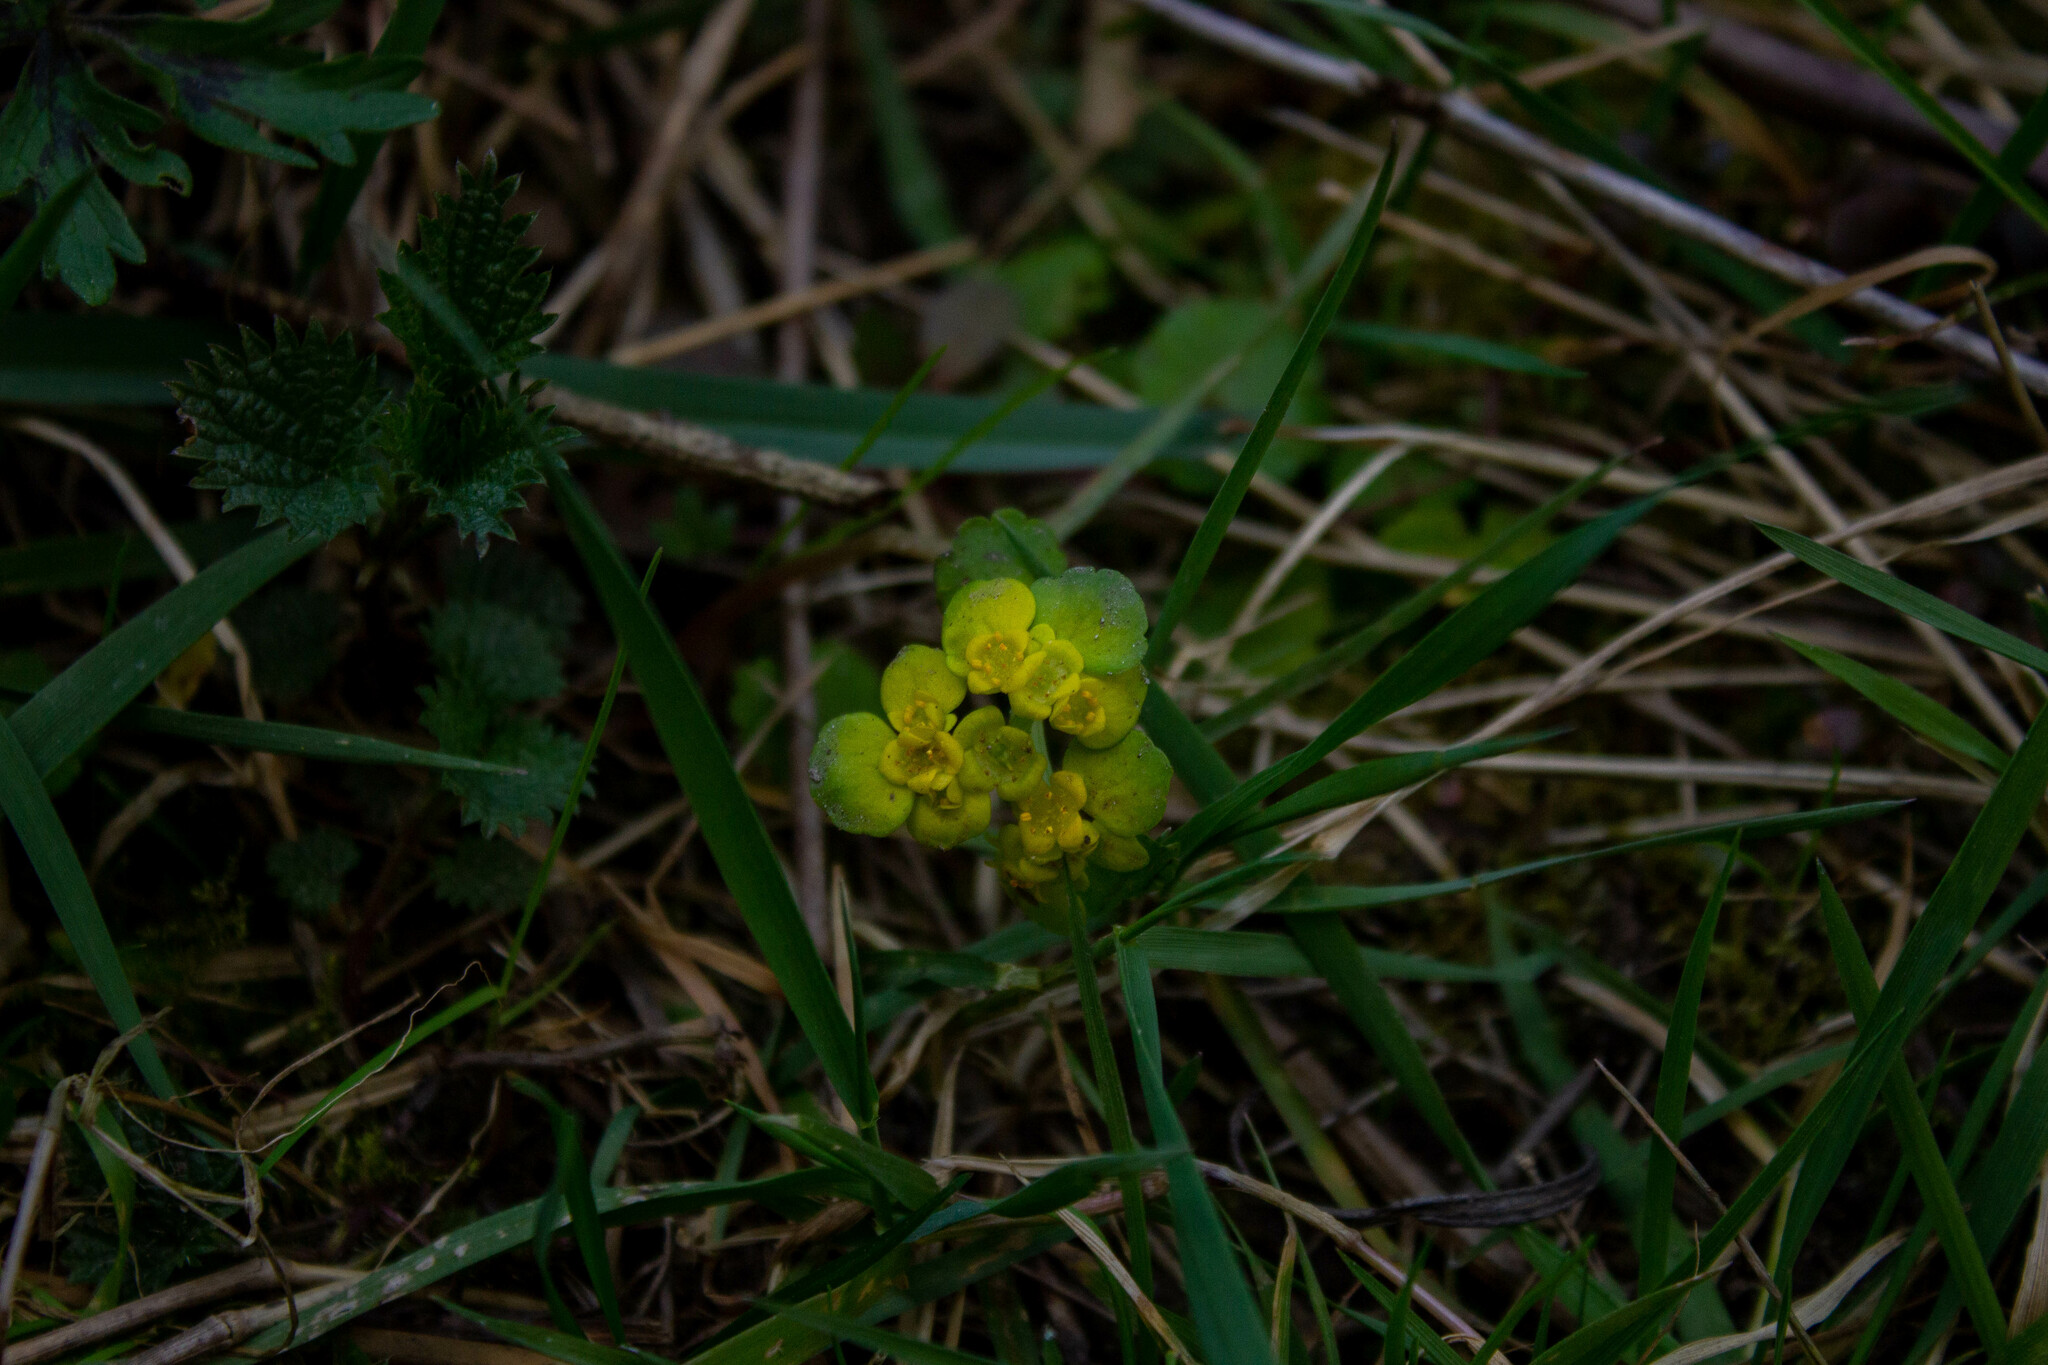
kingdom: Plantae
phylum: Tracheophyta
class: Magnoliopsida
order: Saxifragales
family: Saxifragaceae
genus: Chrysosplenium
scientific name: Chrysosplenium alternifolium
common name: Alternate-leaved golden-saxifrage
